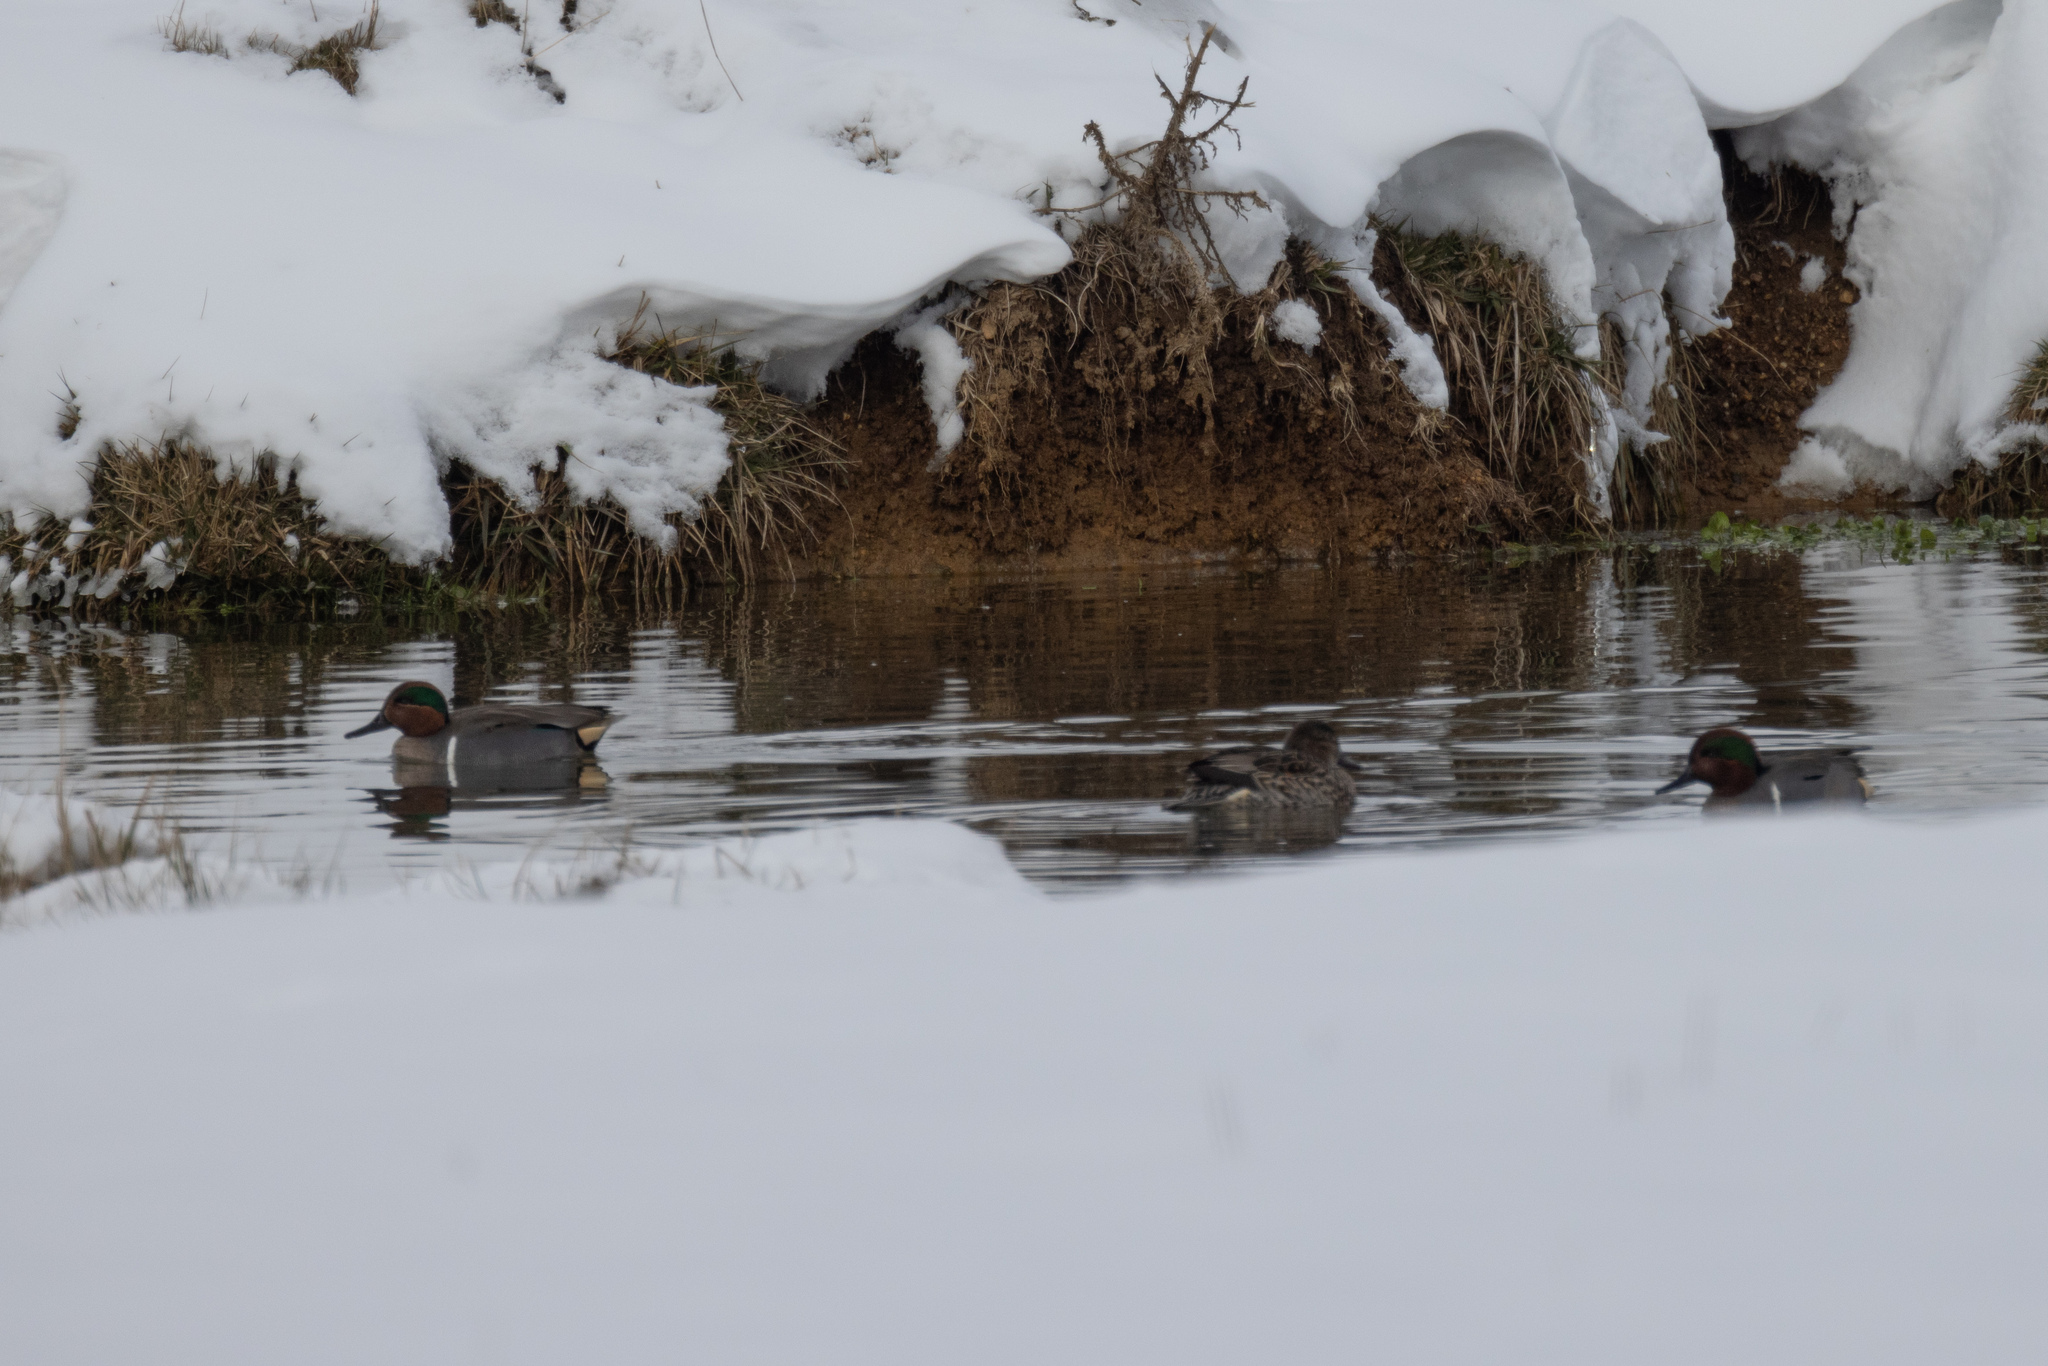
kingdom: Animalia
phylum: Chordata
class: Aves
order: Anseriformes
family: Anatidae
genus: Anas
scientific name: Anas crecca
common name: Eurasian teal
